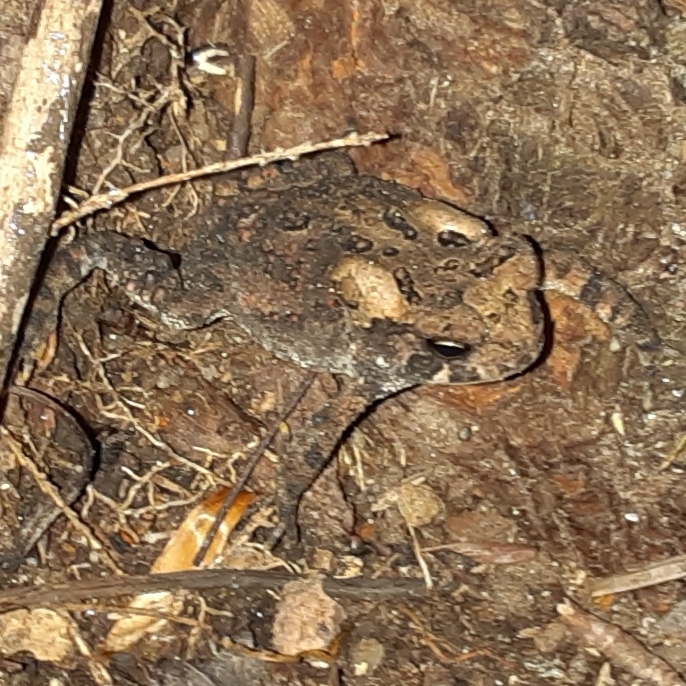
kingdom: Animalia
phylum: Chordata
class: Amphibia
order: Anura
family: Bufonidae
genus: Anaxyrus
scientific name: Anaxyrus americanus
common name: American toad
